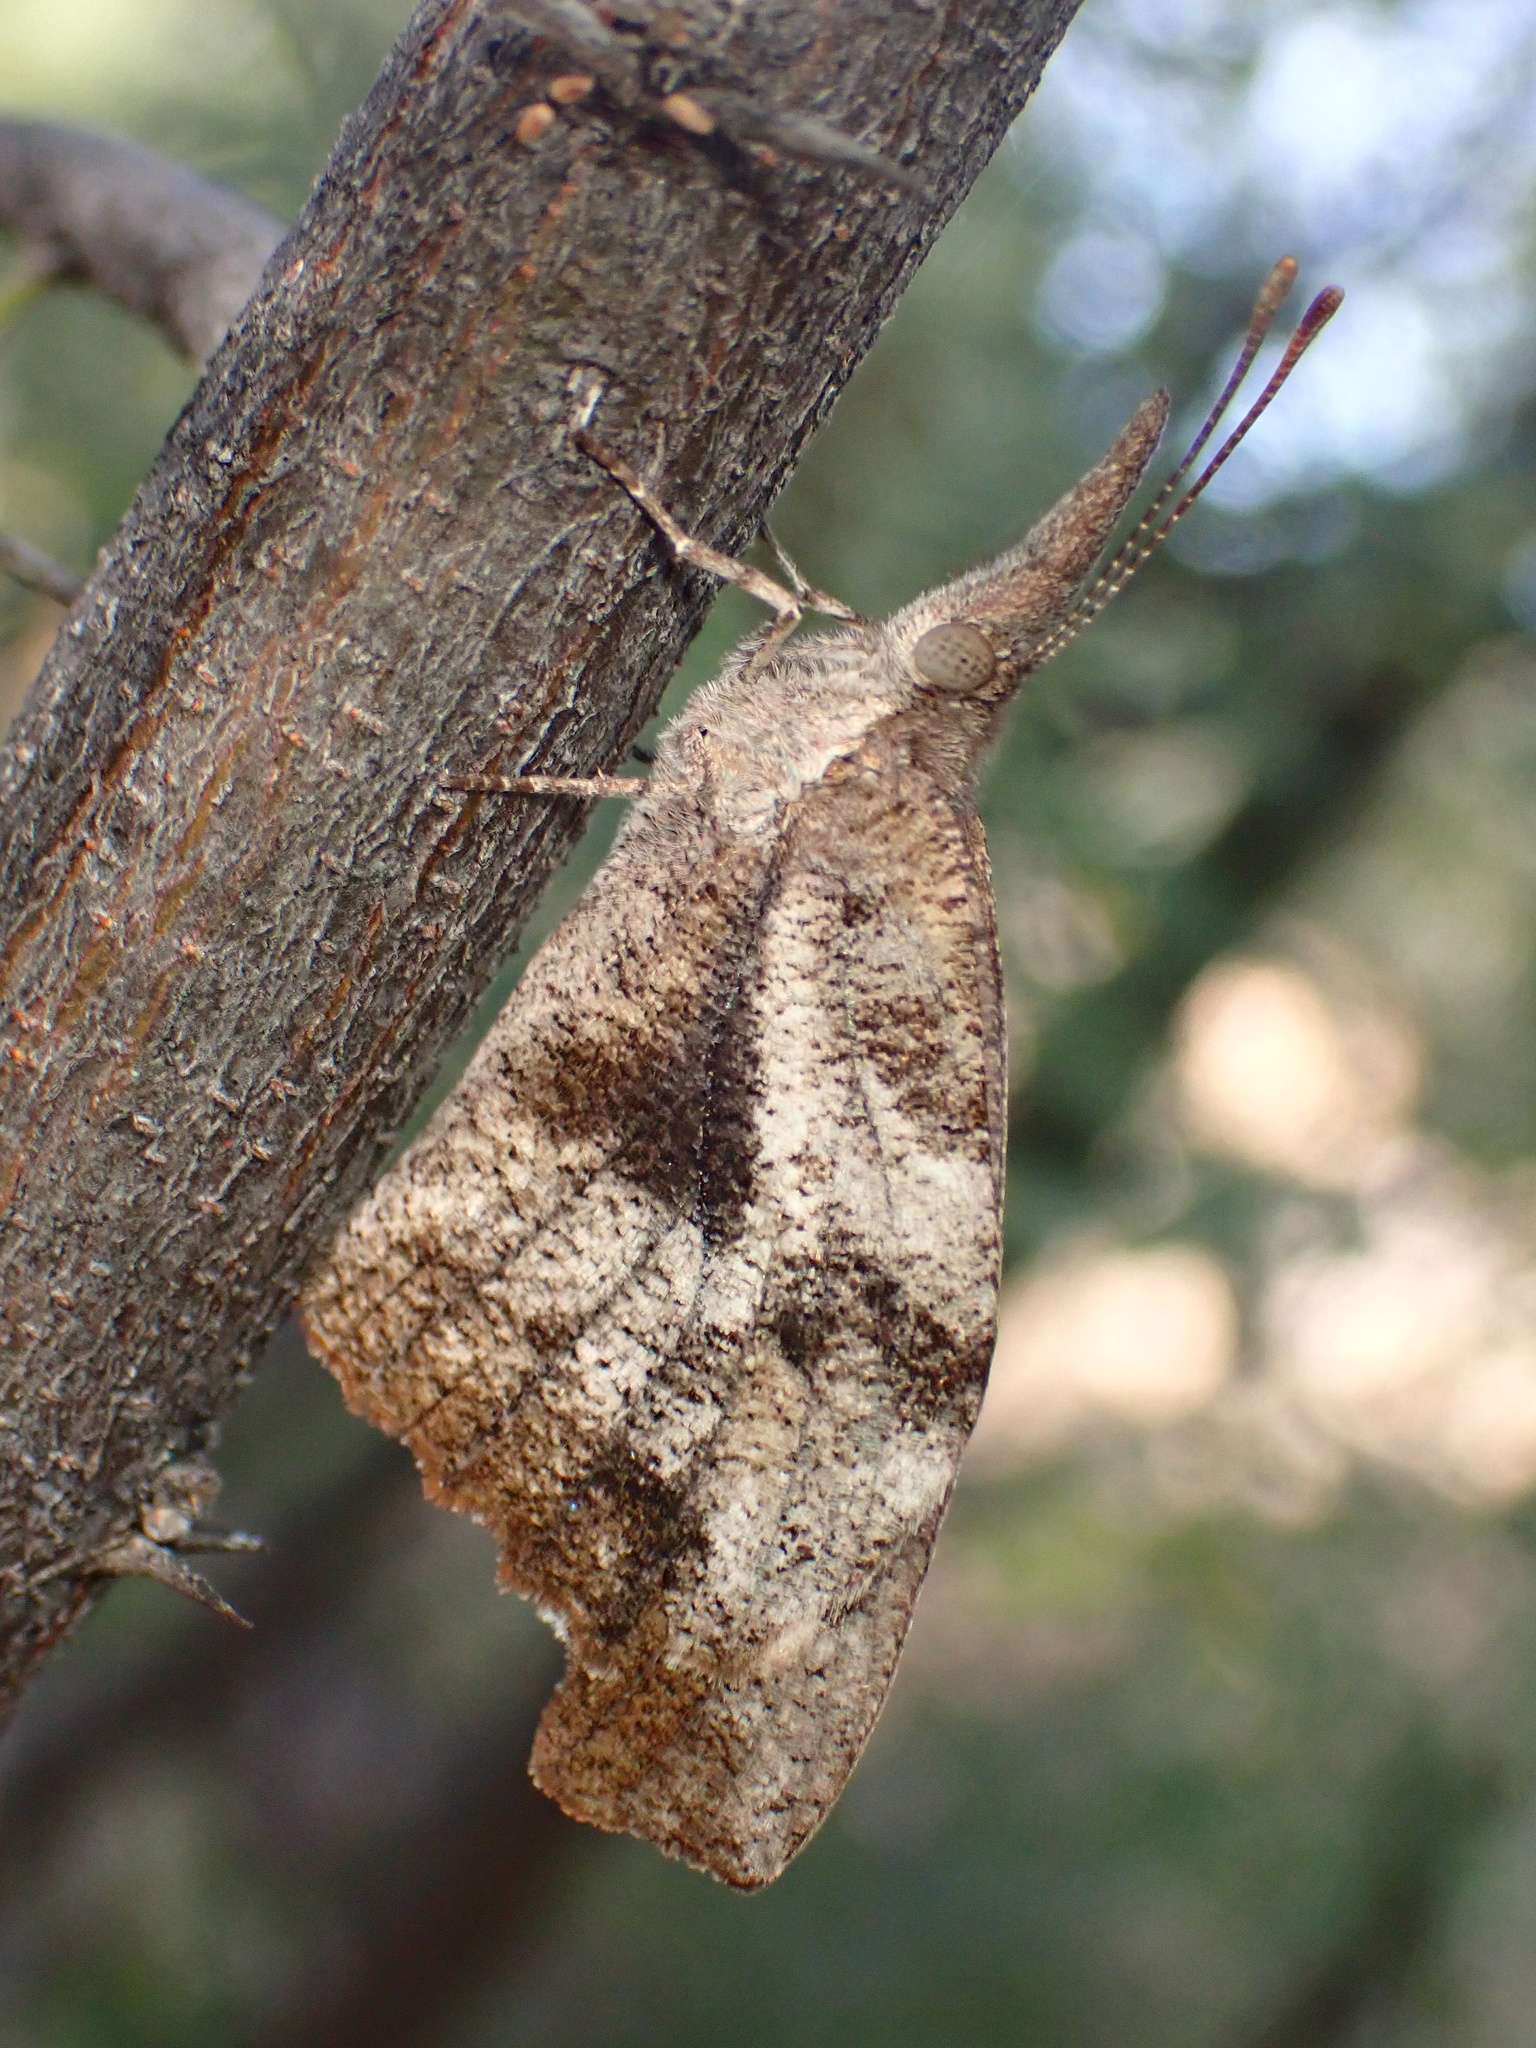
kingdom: Animalia
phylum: Arthropoda
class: Insecta
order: Lepidoptera
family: Nymphalidae
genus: Libytheana
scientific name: Libytheana carinenta
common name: American snout
